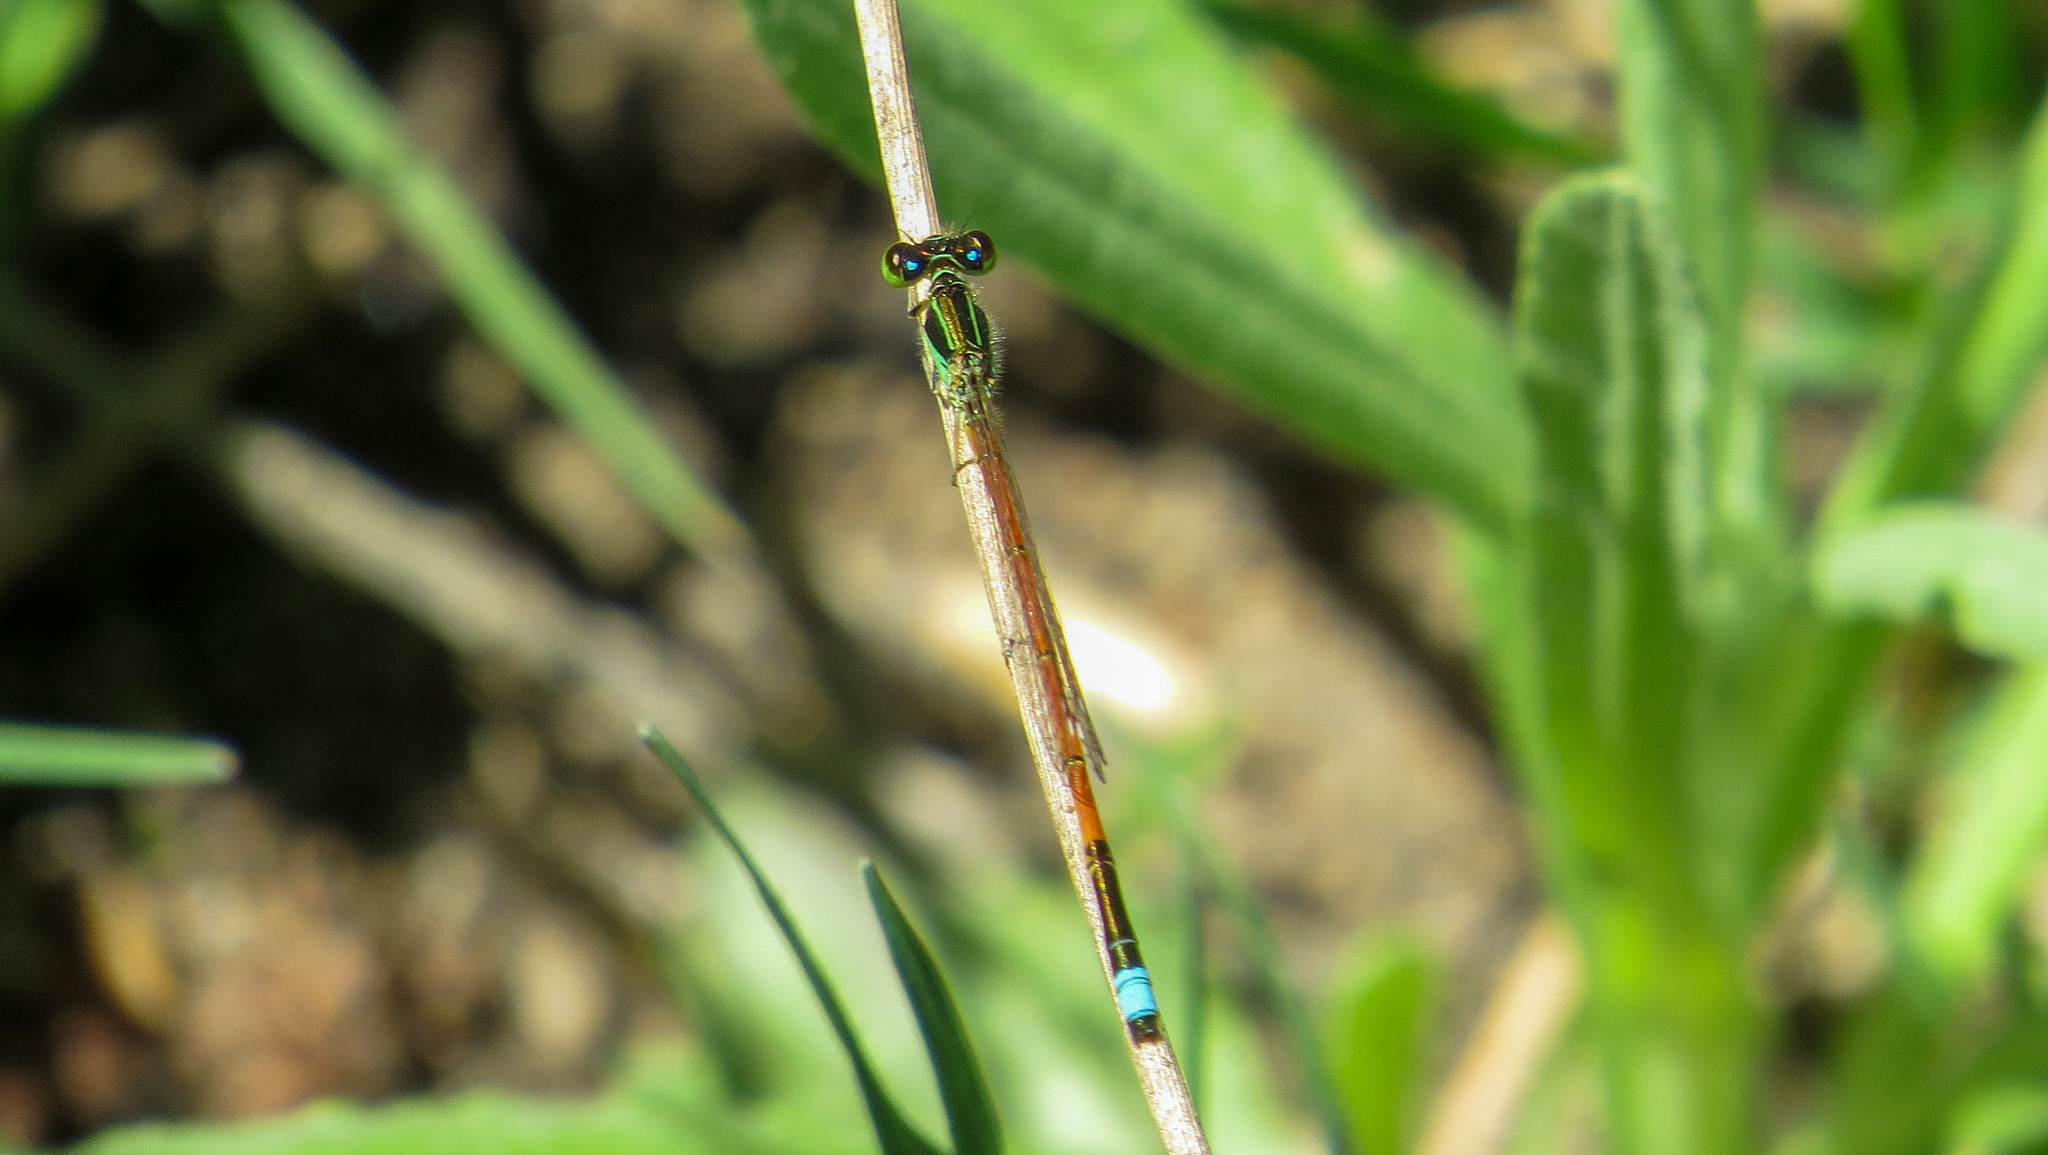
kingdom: Animalia
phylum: Arthropoda
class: Insecta
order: Odonata
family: Coenagrionidae
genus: Ischnura
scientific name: Ischnura aurora
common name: Gossamer damselfly
